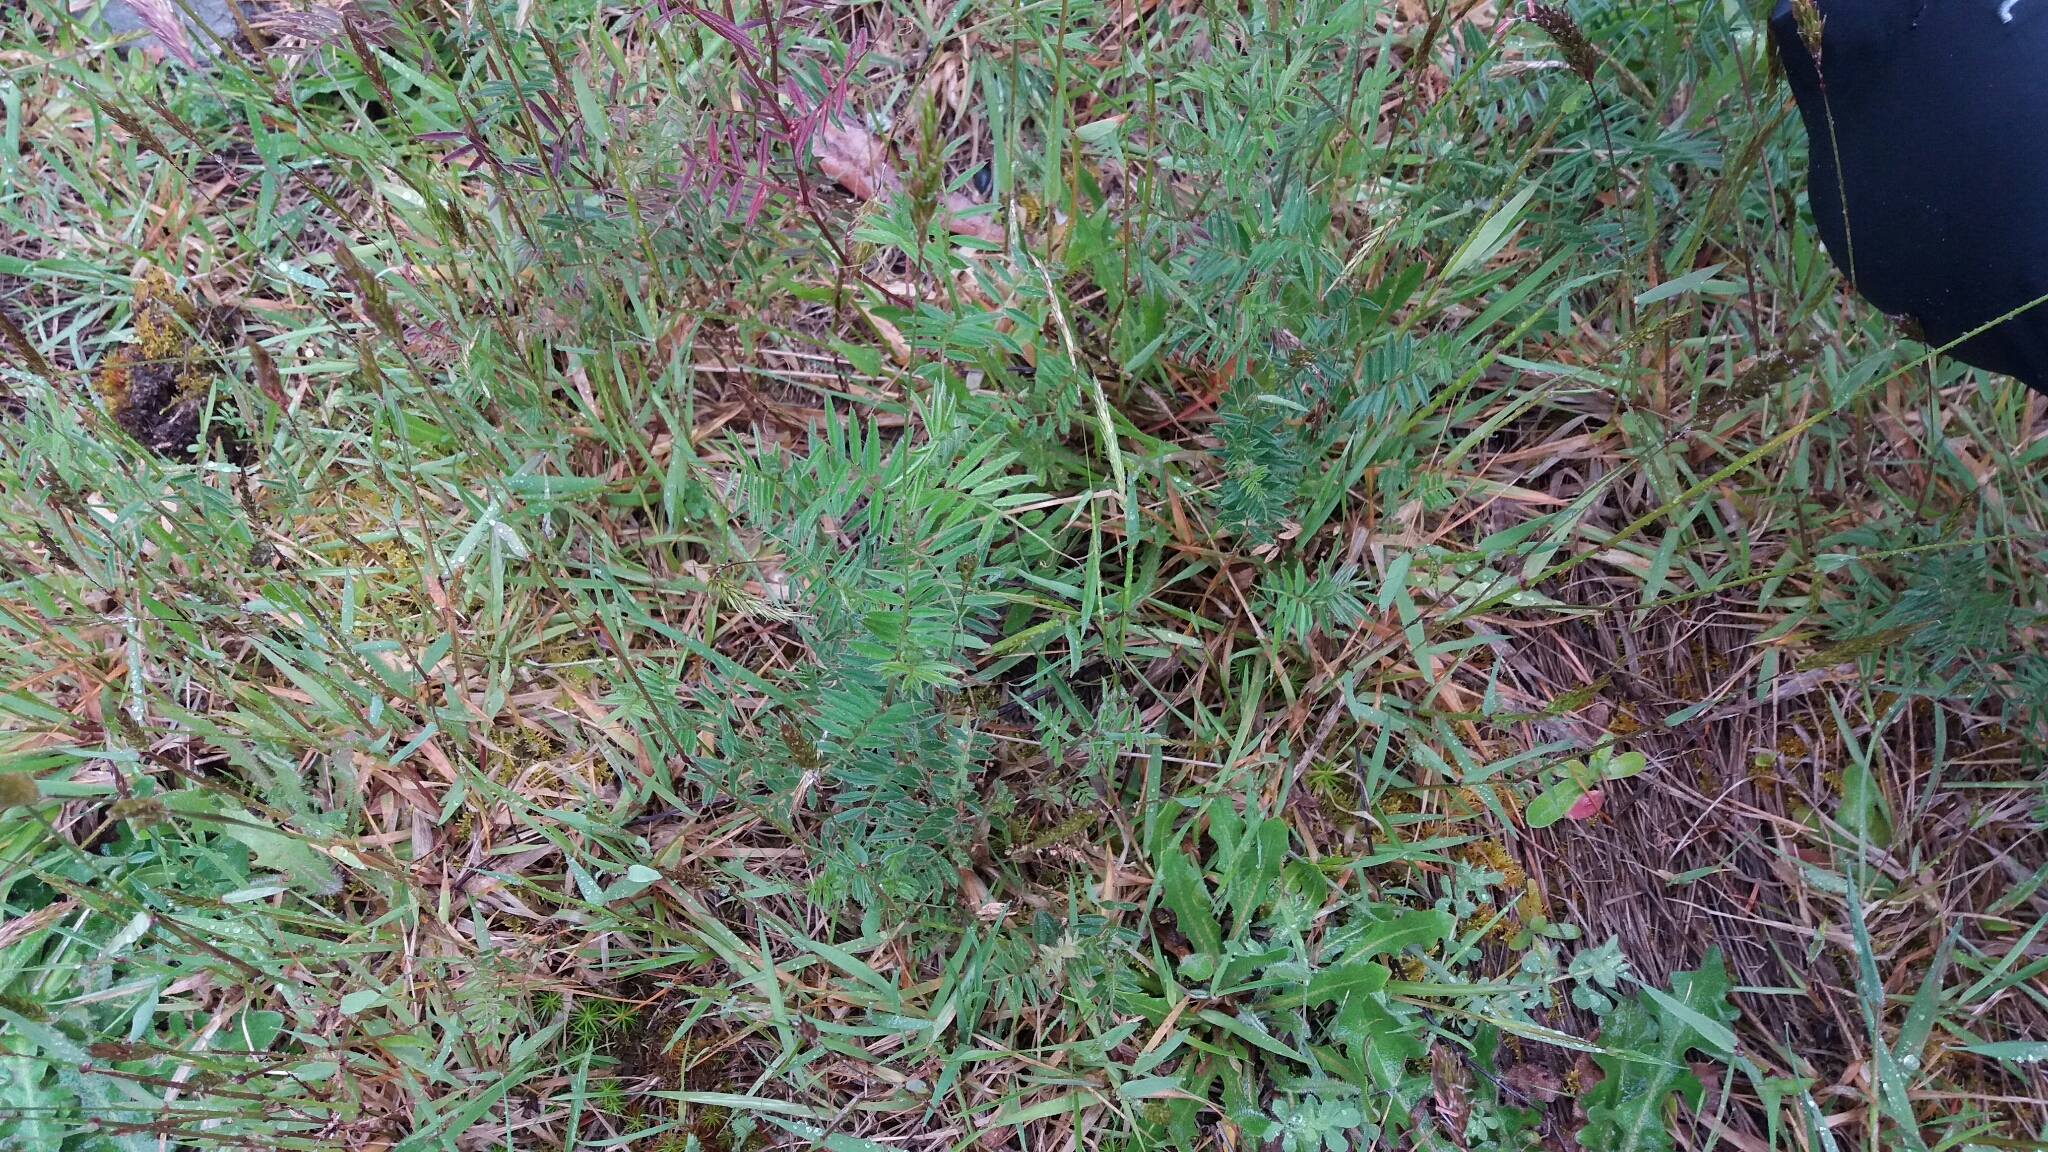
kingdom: Plantae
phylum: Tracheophyta
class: Magnoliopsida
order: Fabales
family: Fabaceae
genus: Vicia
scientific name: Vicia sativa
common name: Garden vetch
